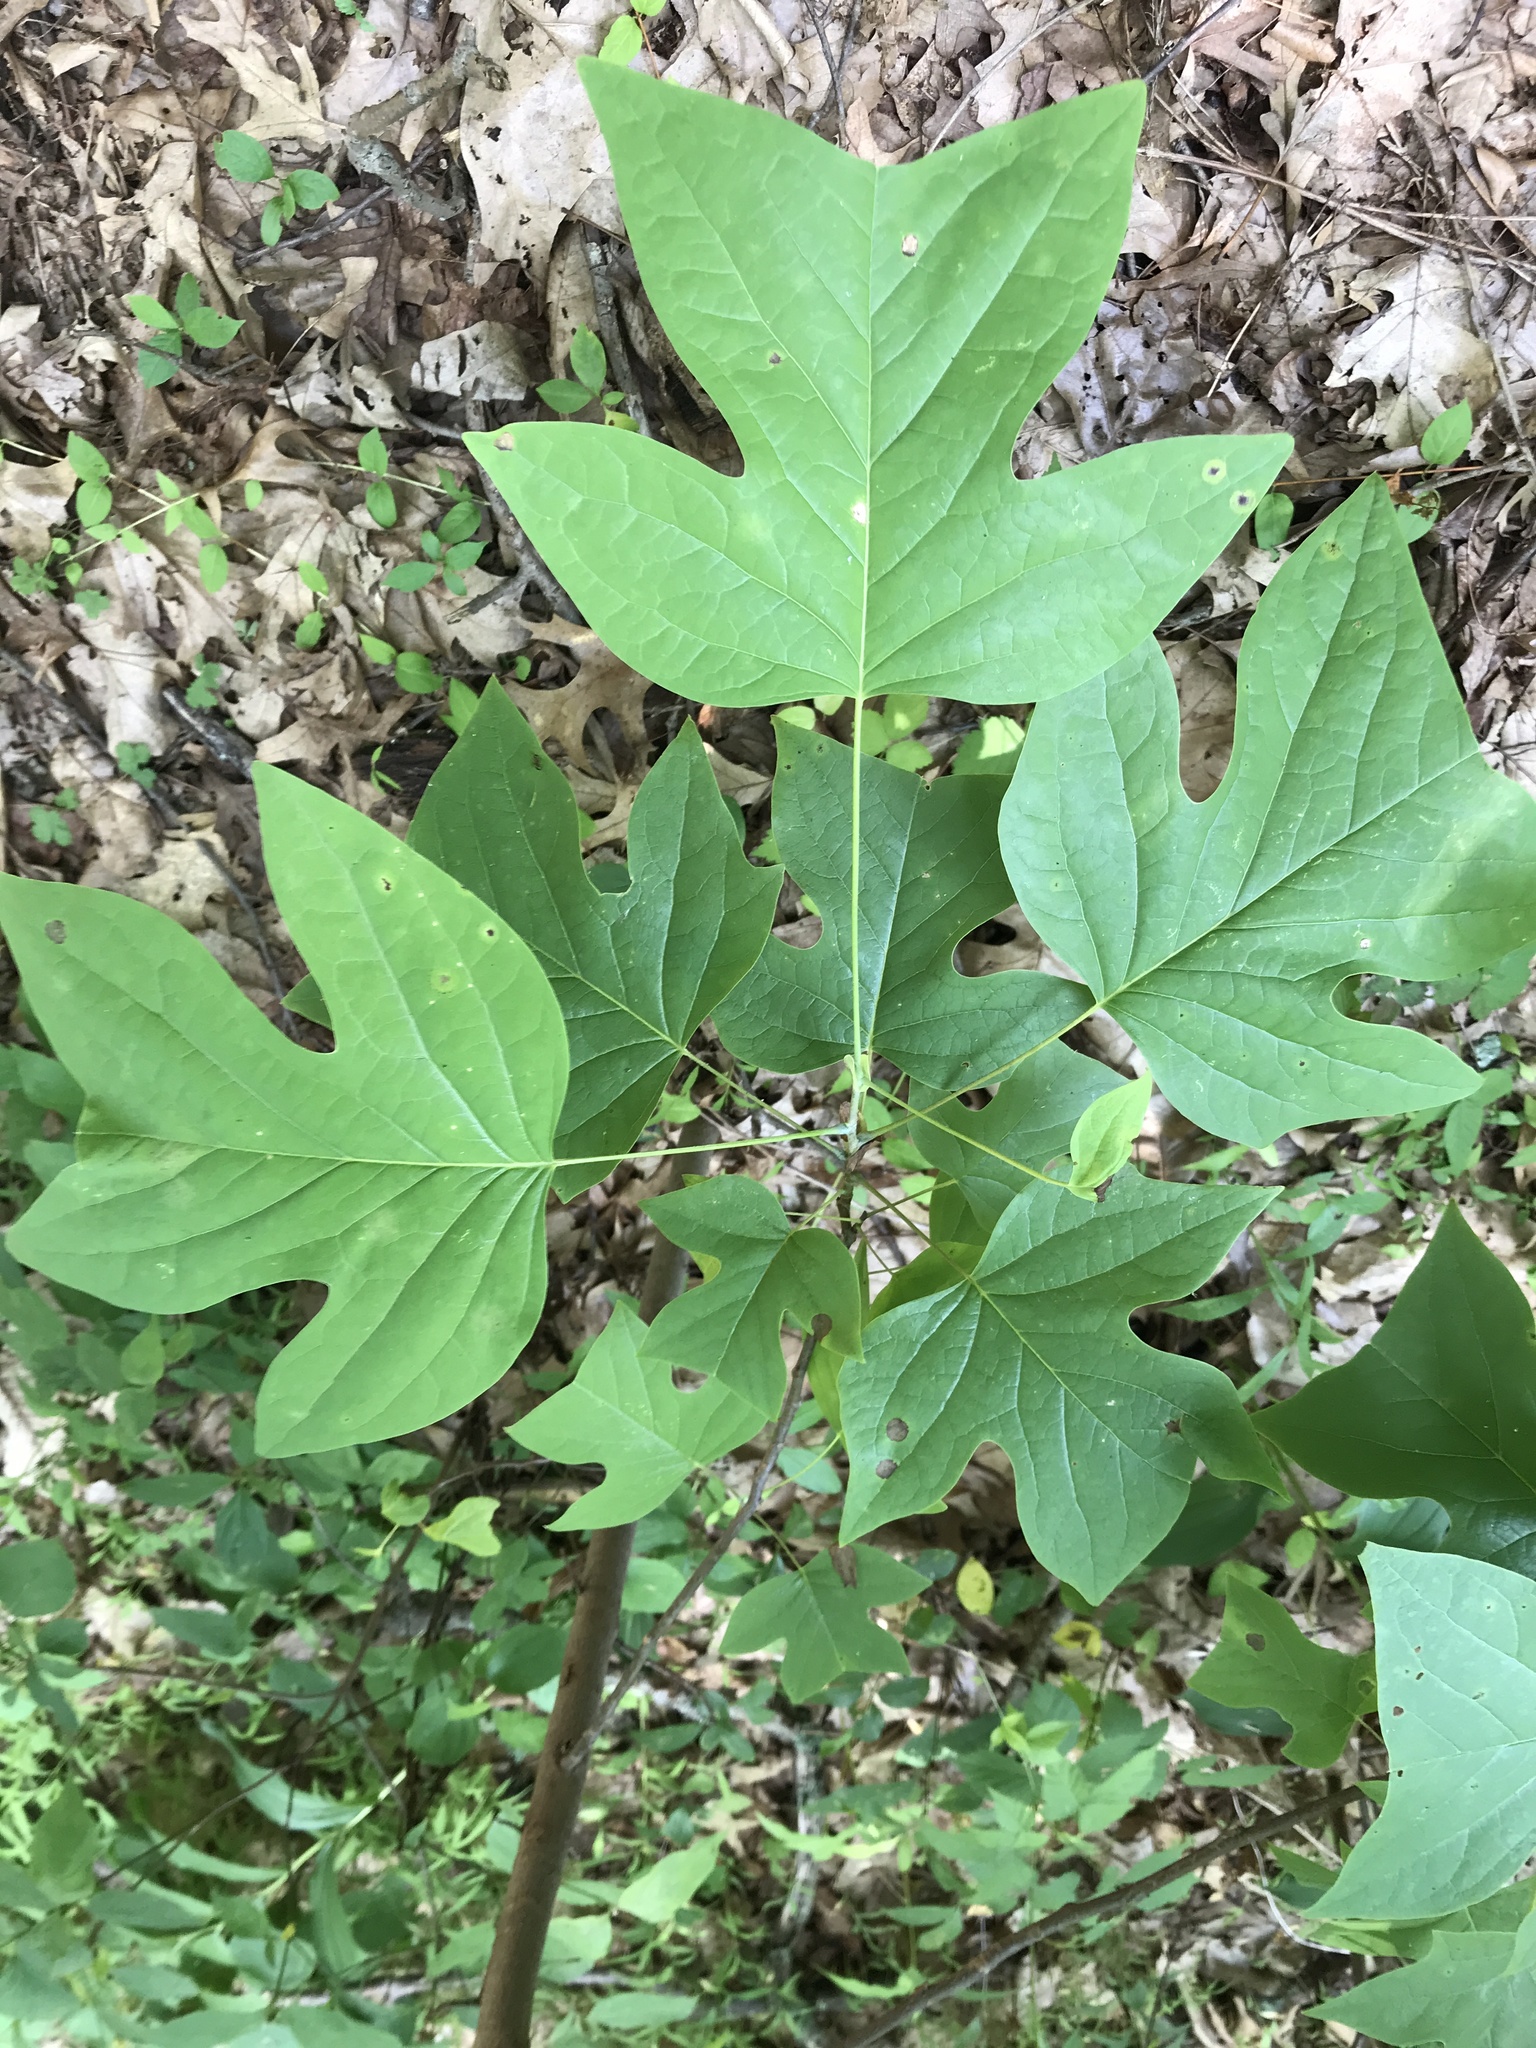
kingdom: Plantae
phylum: Tracheophyta
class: Magnoliopsida
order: Magnoliales
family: Magnoliaceae
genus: Liriodendron
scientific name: Liriodendron tulipifera
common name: Tulip tree
